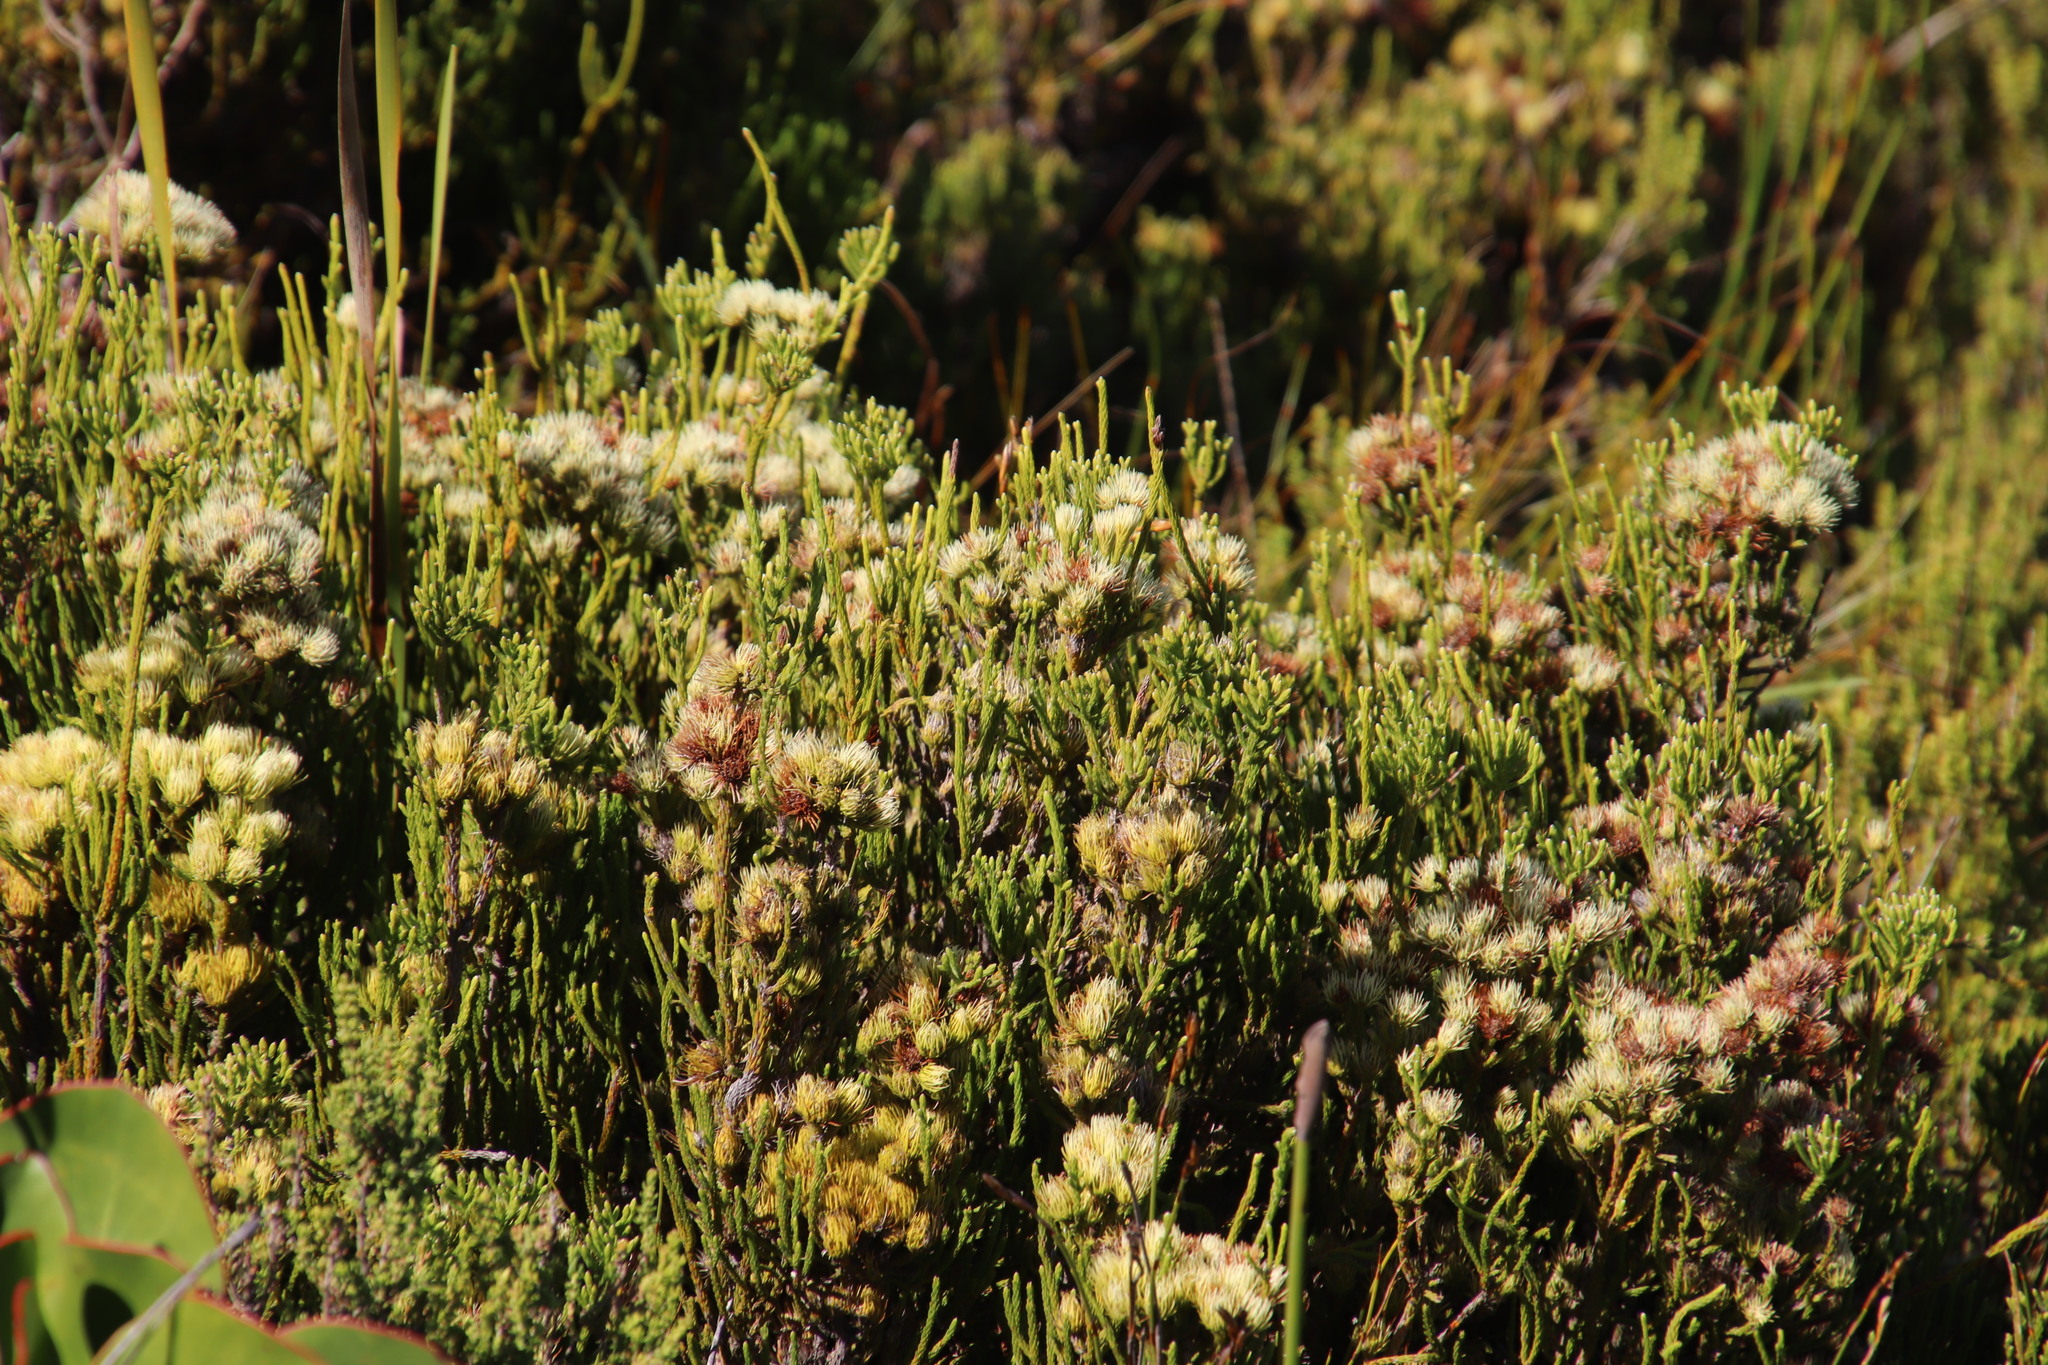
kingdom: Plantae
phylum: Tracheophyta
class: Magnoliopsida
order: Bruniales
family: Bruniaceae
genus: Brunia
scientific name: Brunia paleacea
